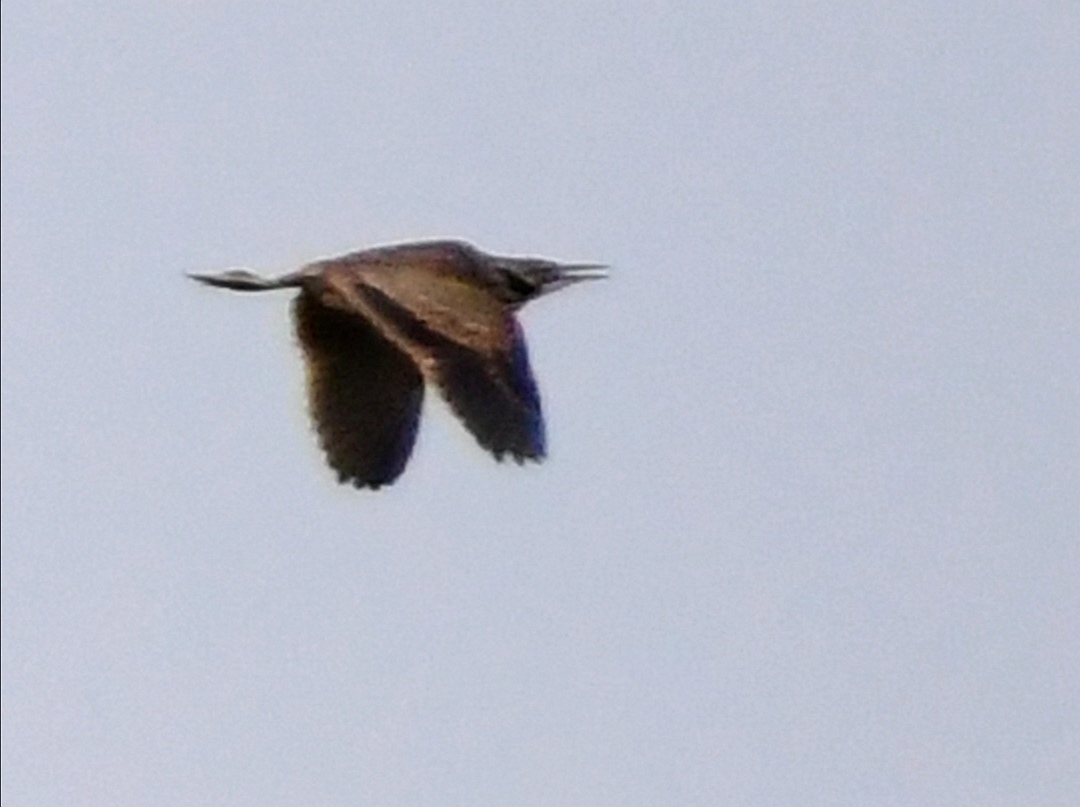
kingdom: Animalia
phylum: Chordata
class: Aves
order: Pelecaniformes
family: Ardeidae
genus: Botaurus
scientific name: Botaurus lentiginosus
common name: American bittern
